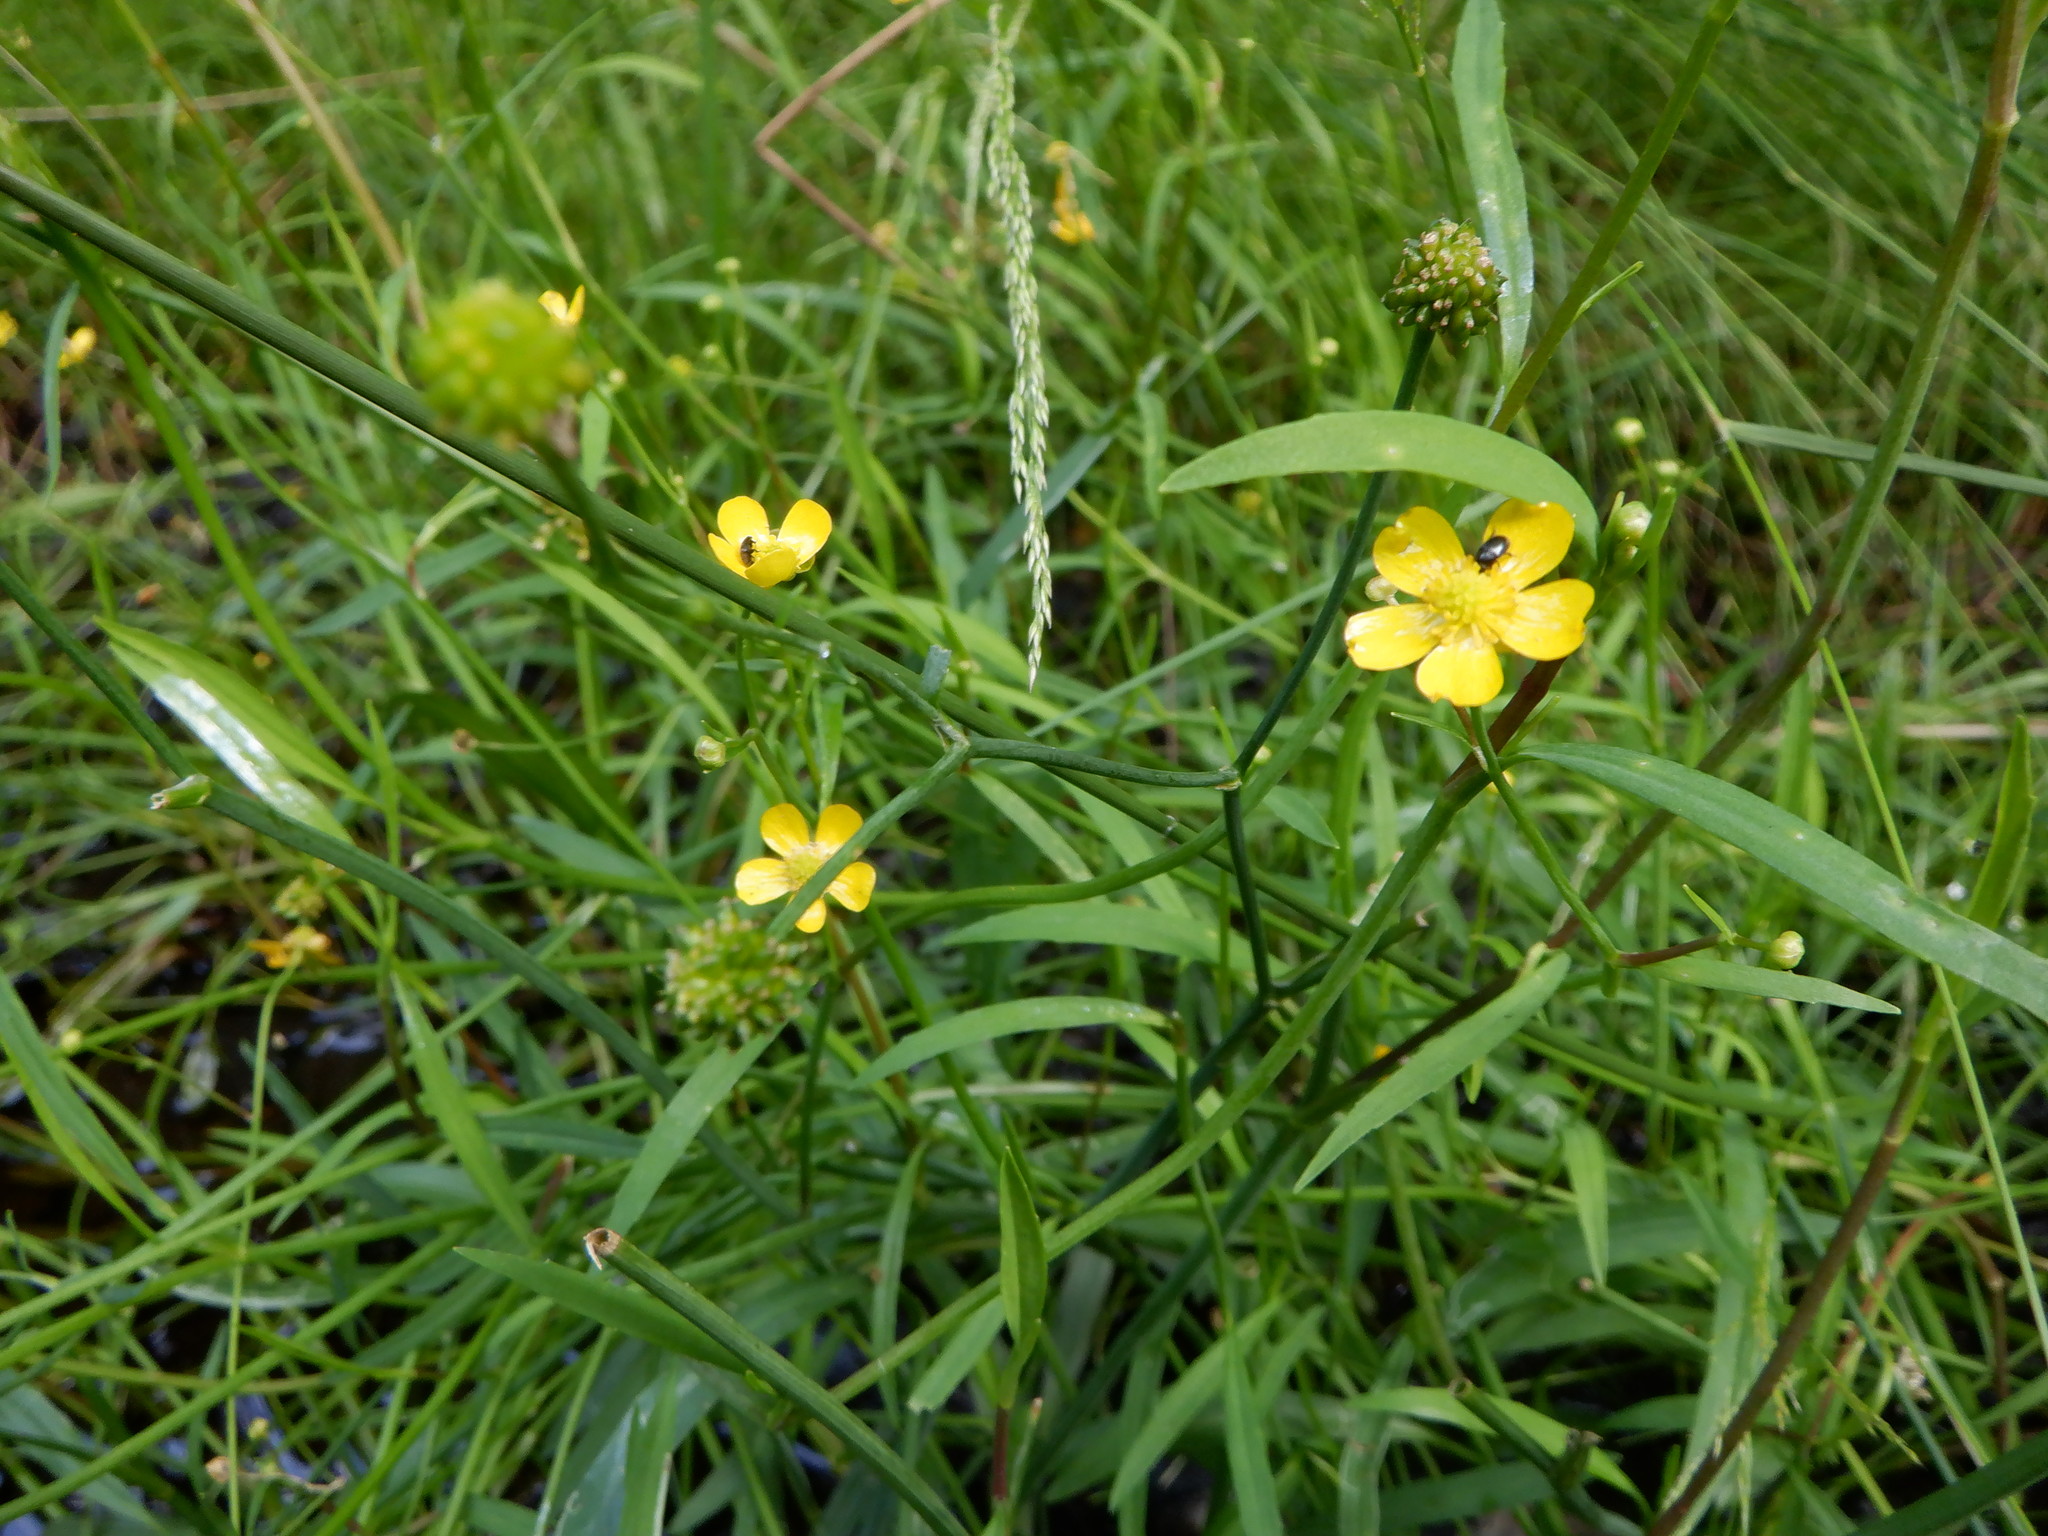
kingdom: Plantae
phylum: Tracheophyta
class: Magnoliopsida
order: Ranunculales
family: Ranunculaceae
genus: Ranunculus
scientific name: Ranunculus flammula
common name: Lesser spearwort
